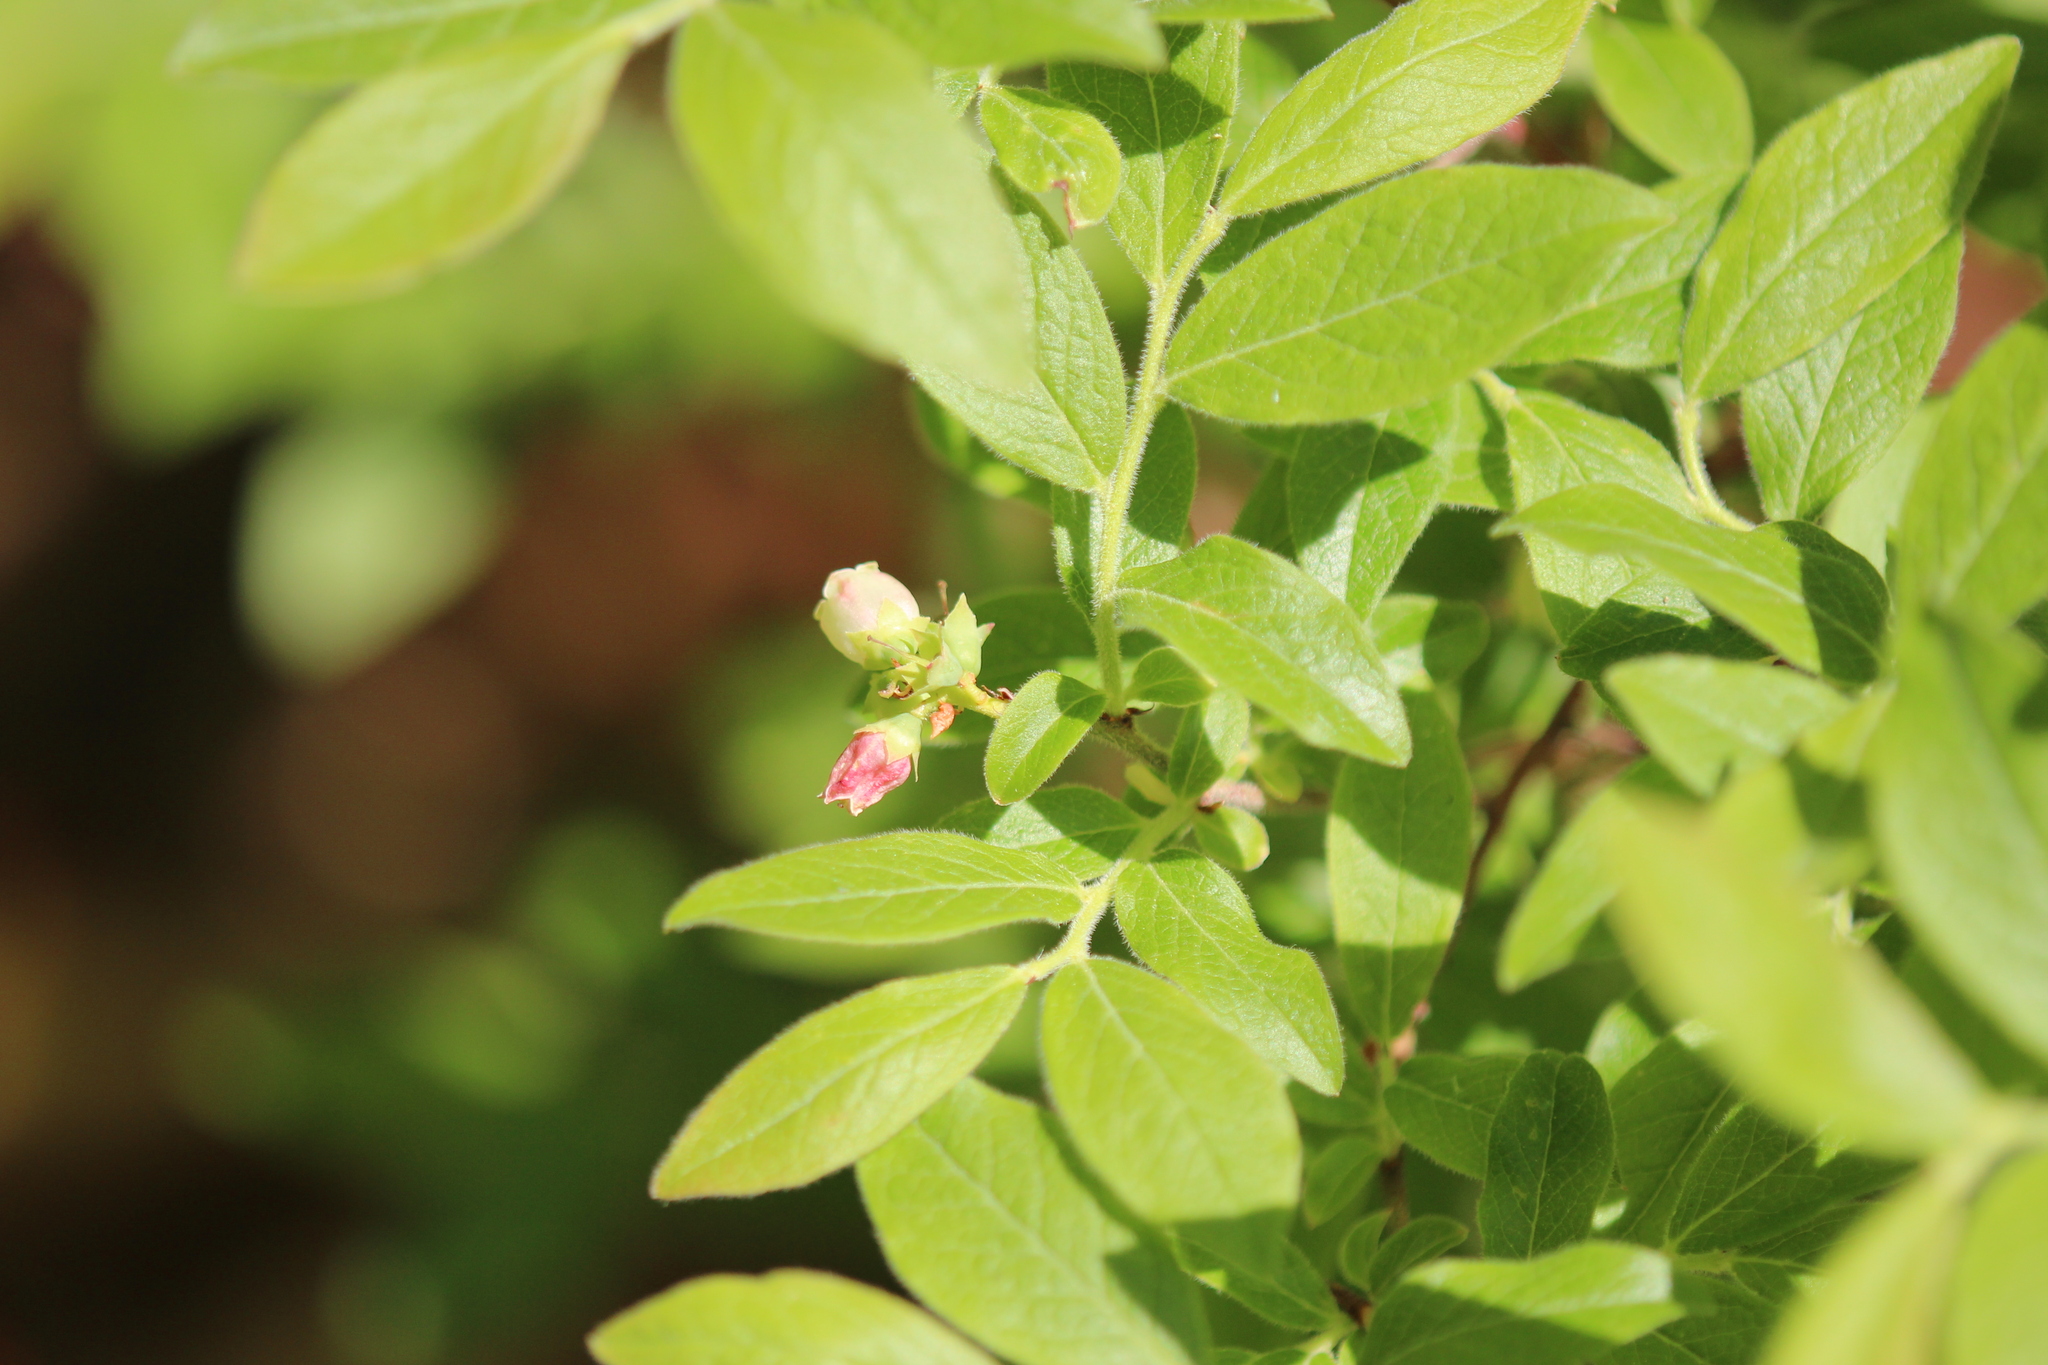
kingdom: Plantae
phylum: Tracheophyta
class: Magnoliopsida
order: Ericales
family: Ericaceae
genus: Vaccinium
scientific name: Vaccinium myrtilloides
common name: Canada blueberry
